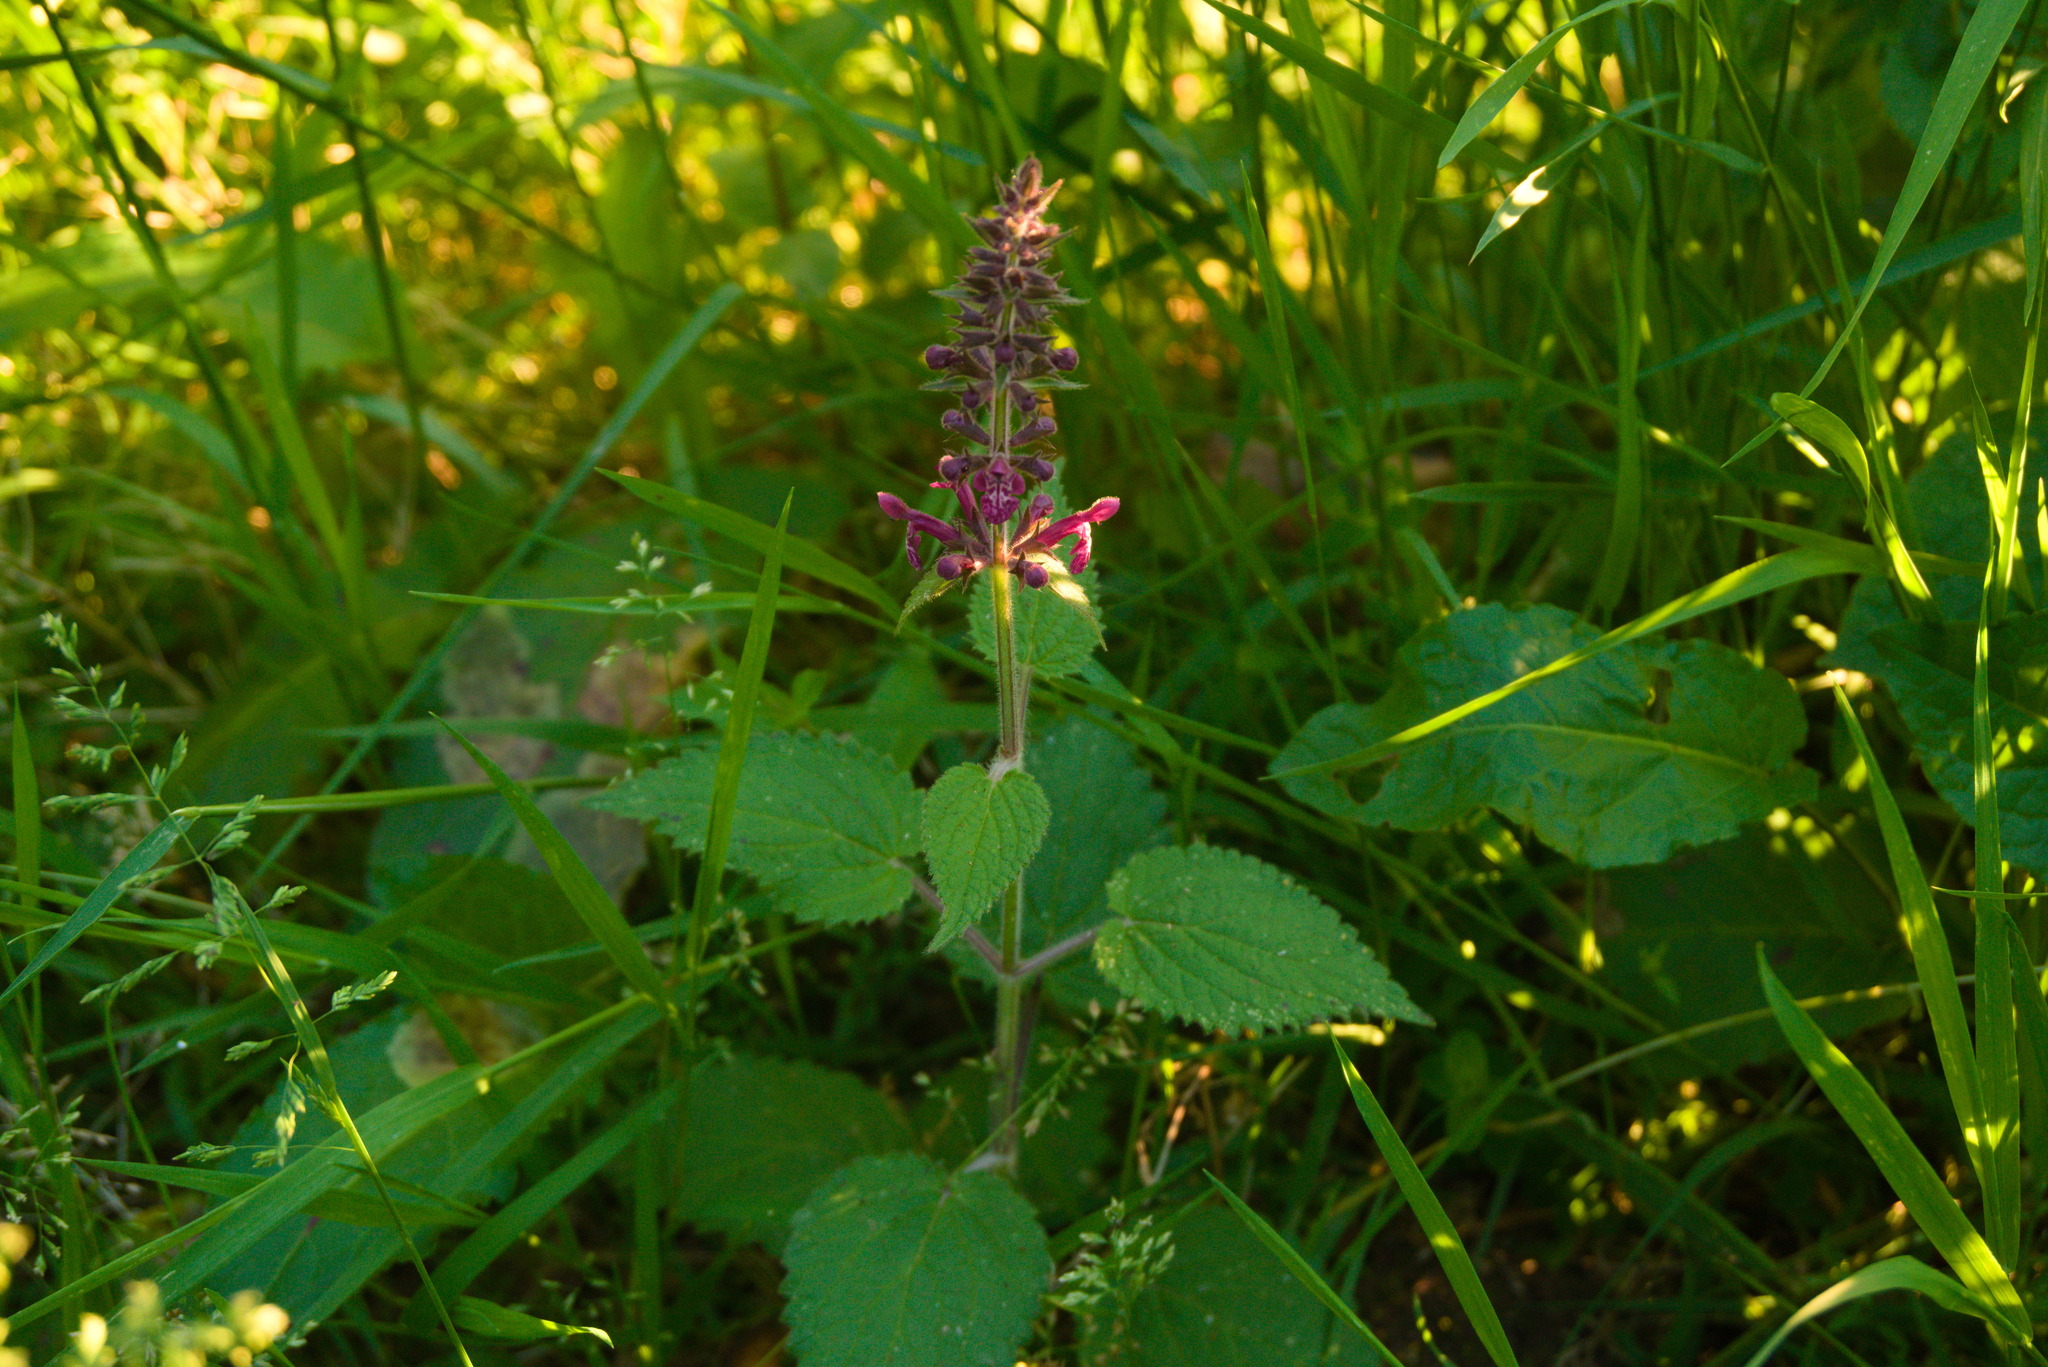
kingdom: Plantae
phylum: Tracheophyta
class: Magnoliopsida
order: Lamiales
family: Lamiaceae
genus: Stachys
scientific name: Stachys sylvatica
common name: Hedge woundwort
